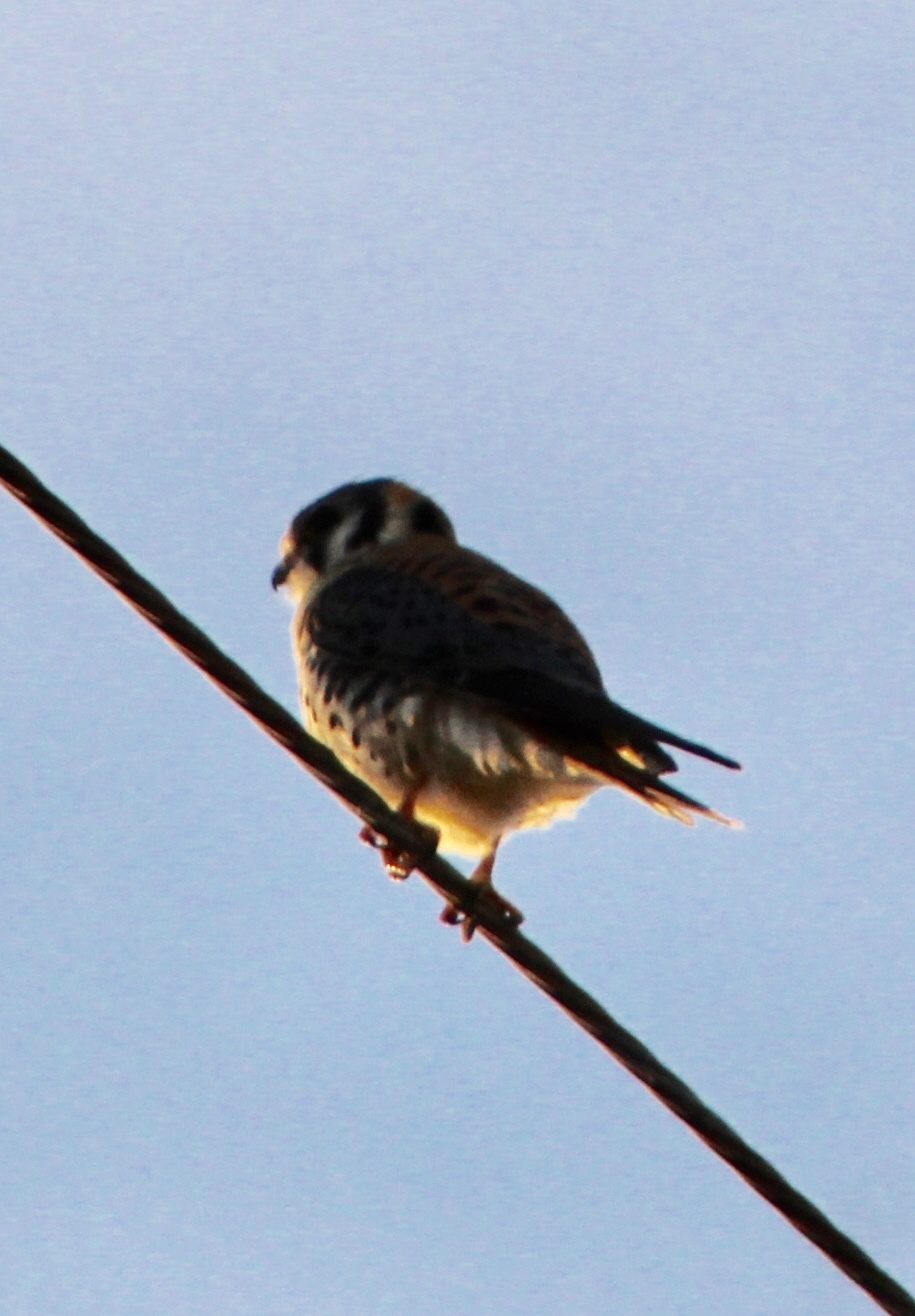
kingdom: Animalia
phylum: Chordata
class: Aves
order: Falconiformes
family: Falconidae
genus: Falco
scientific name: Falco sparverius
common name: American kestrel
